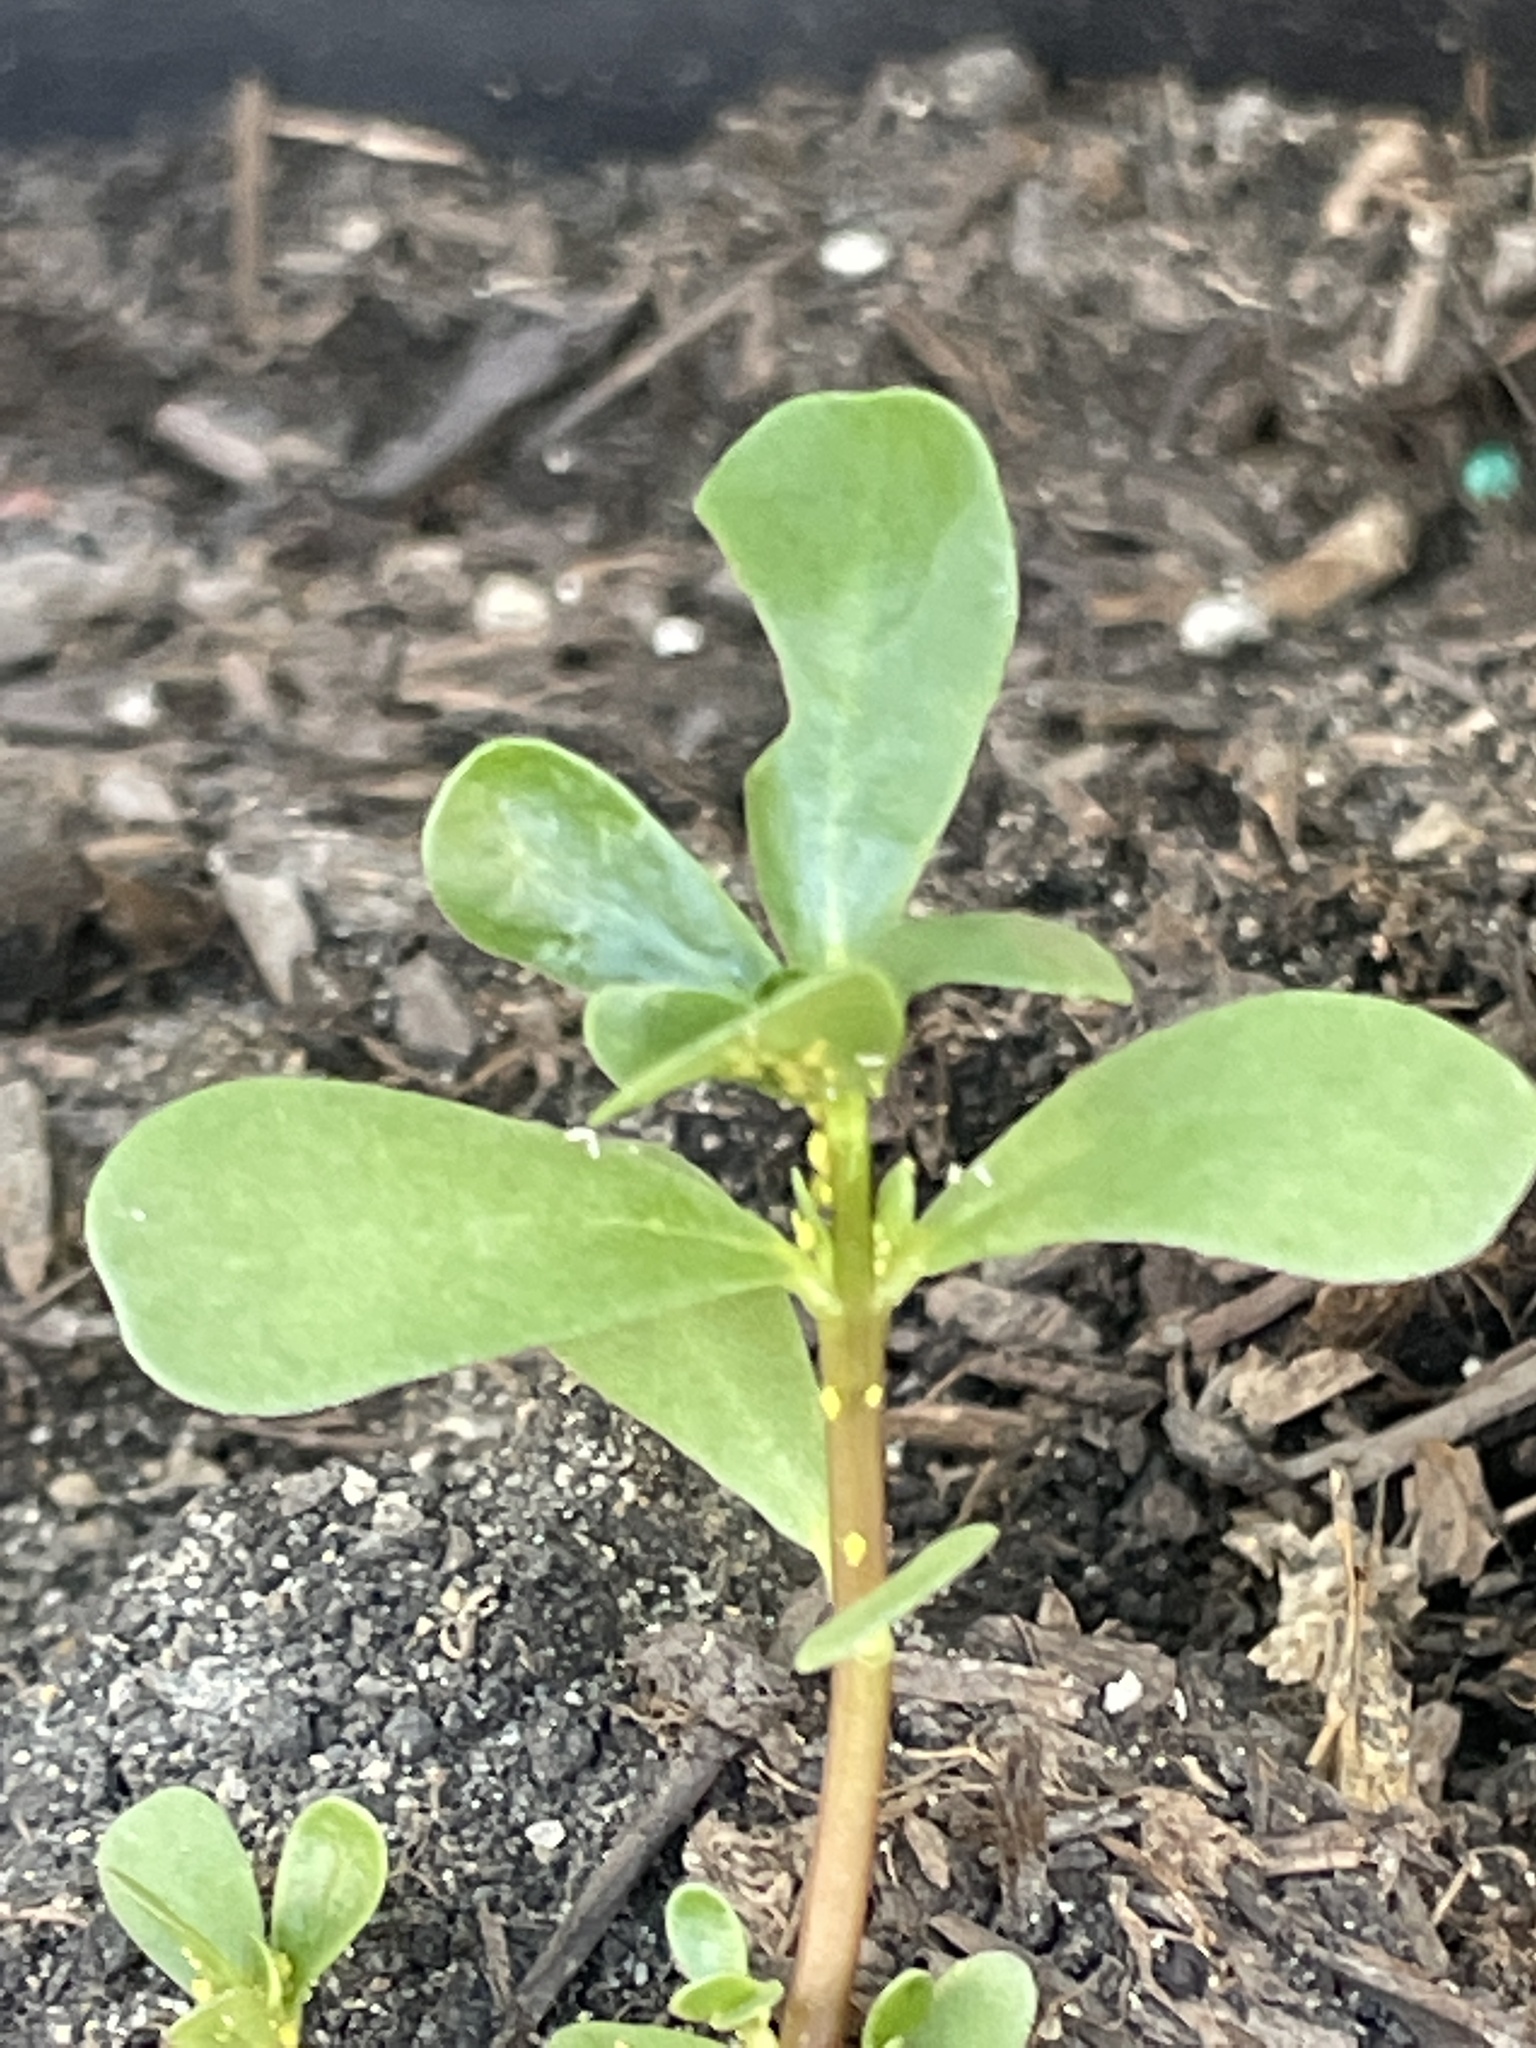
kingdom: Plantae
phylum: Tracheophyta
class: Magnoliopsida
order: Caryophyllales
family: Portulacaceae
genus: Portulaca
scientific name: Portulaca oleracea
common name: Common purslane
